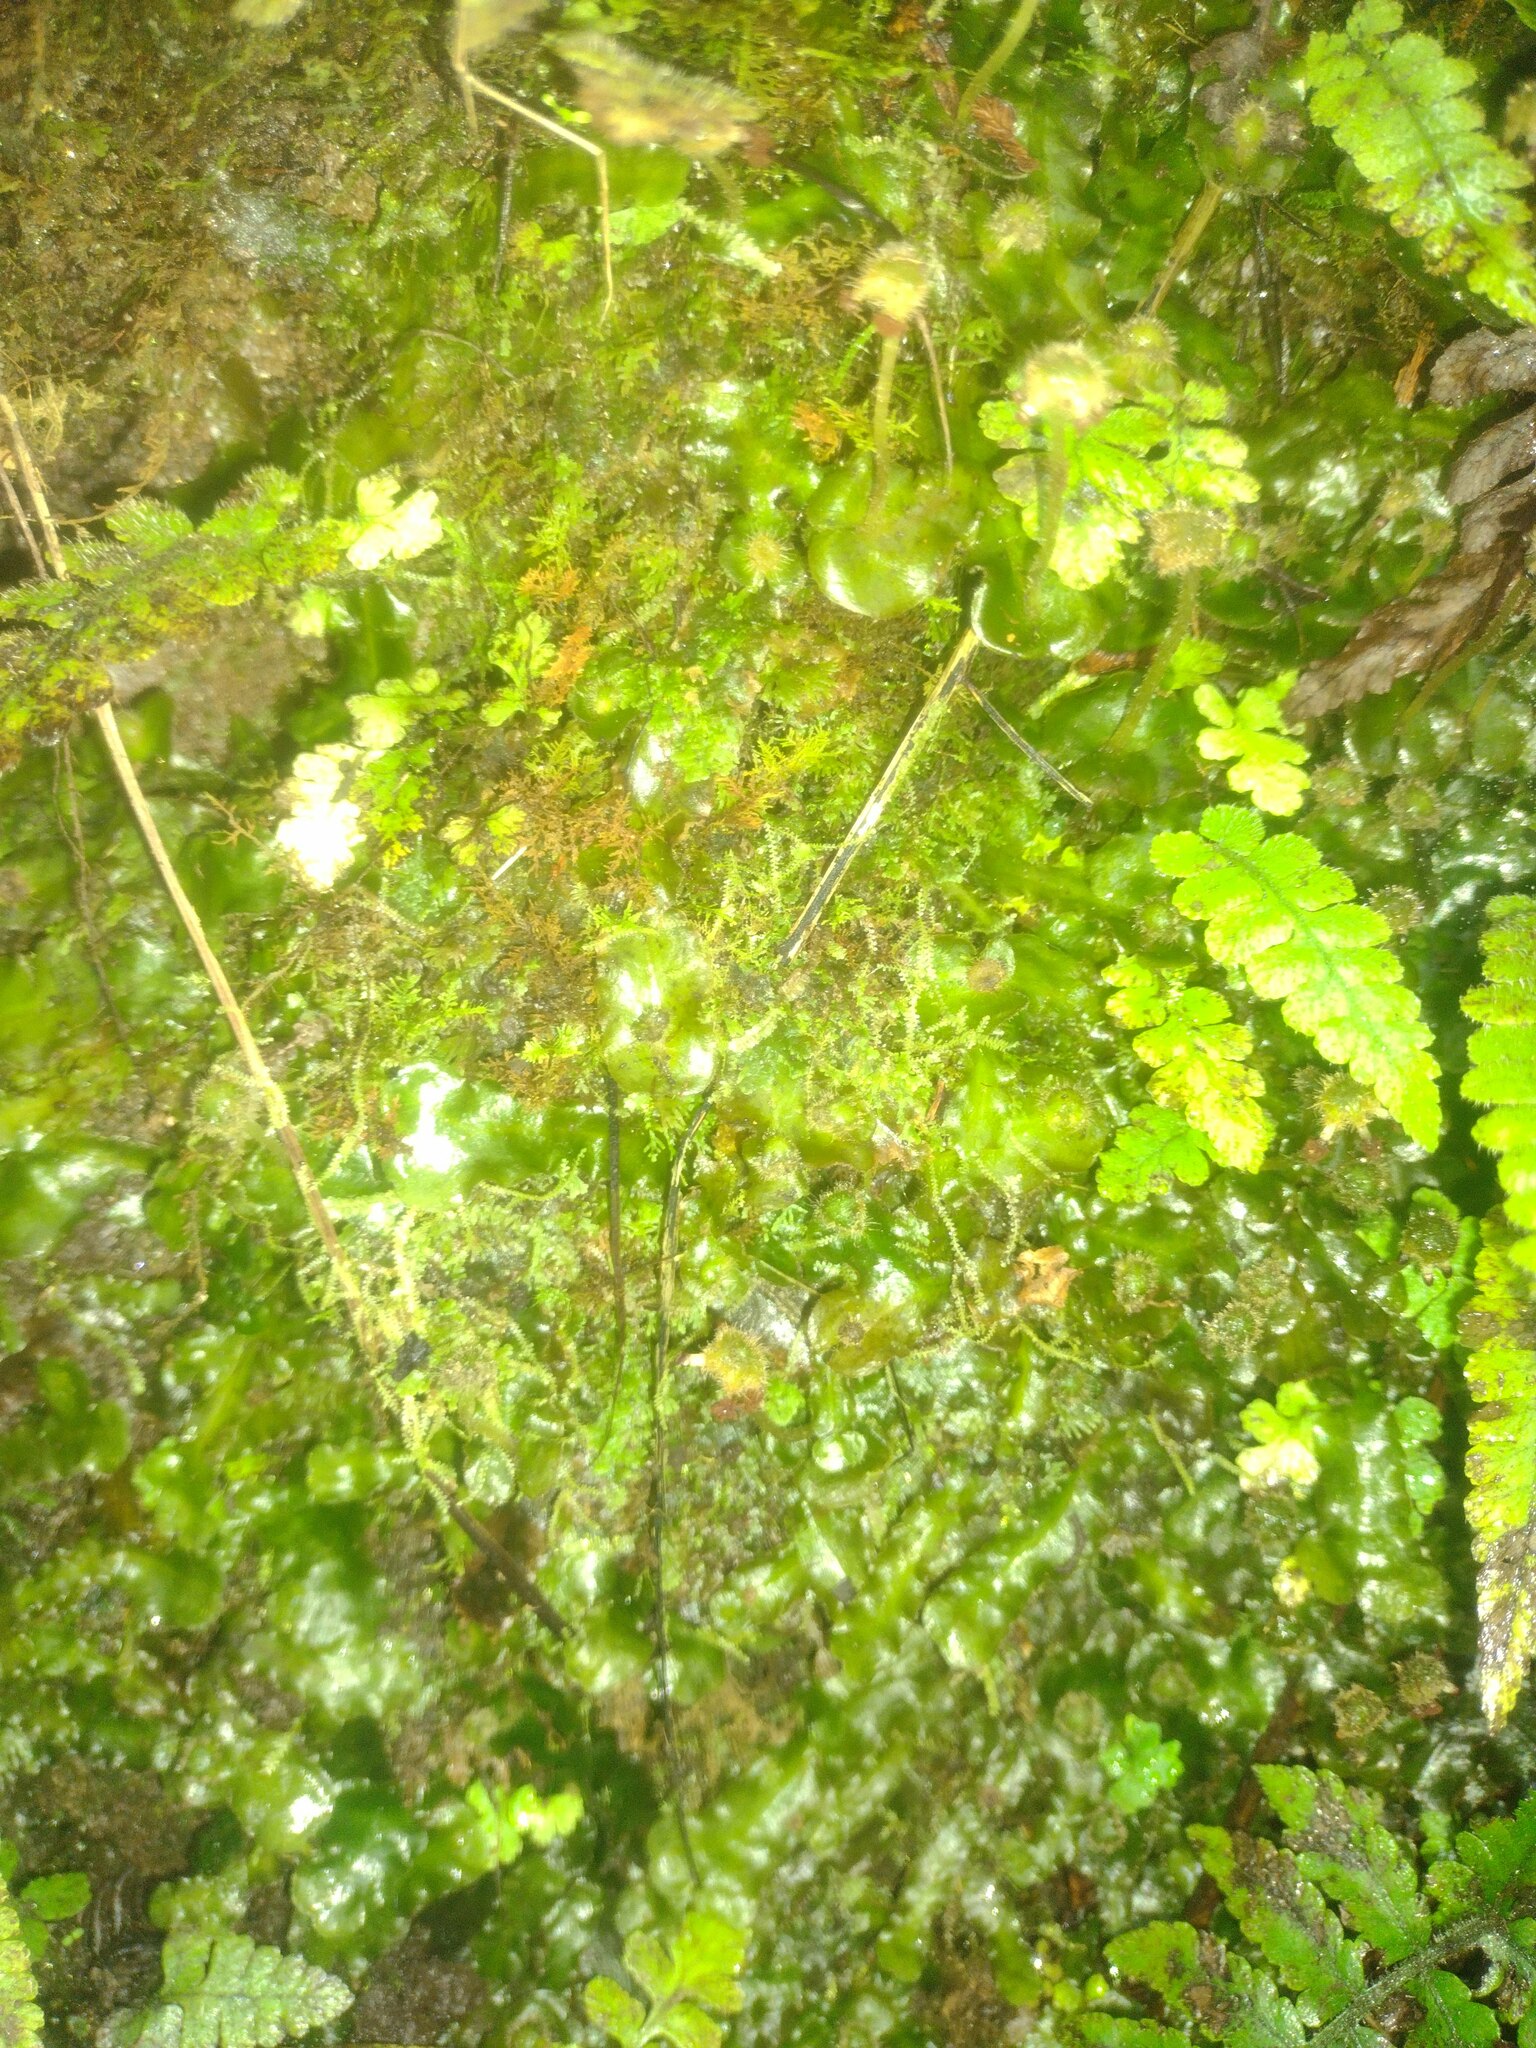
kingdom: Plantae
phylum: Marchantiophyta
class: Marchantiopsida
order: Marchantiales
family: Dumortieraceae
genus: Dumortiera
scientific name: Dumortiera hirsuta
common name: Dumortier's liverwort
